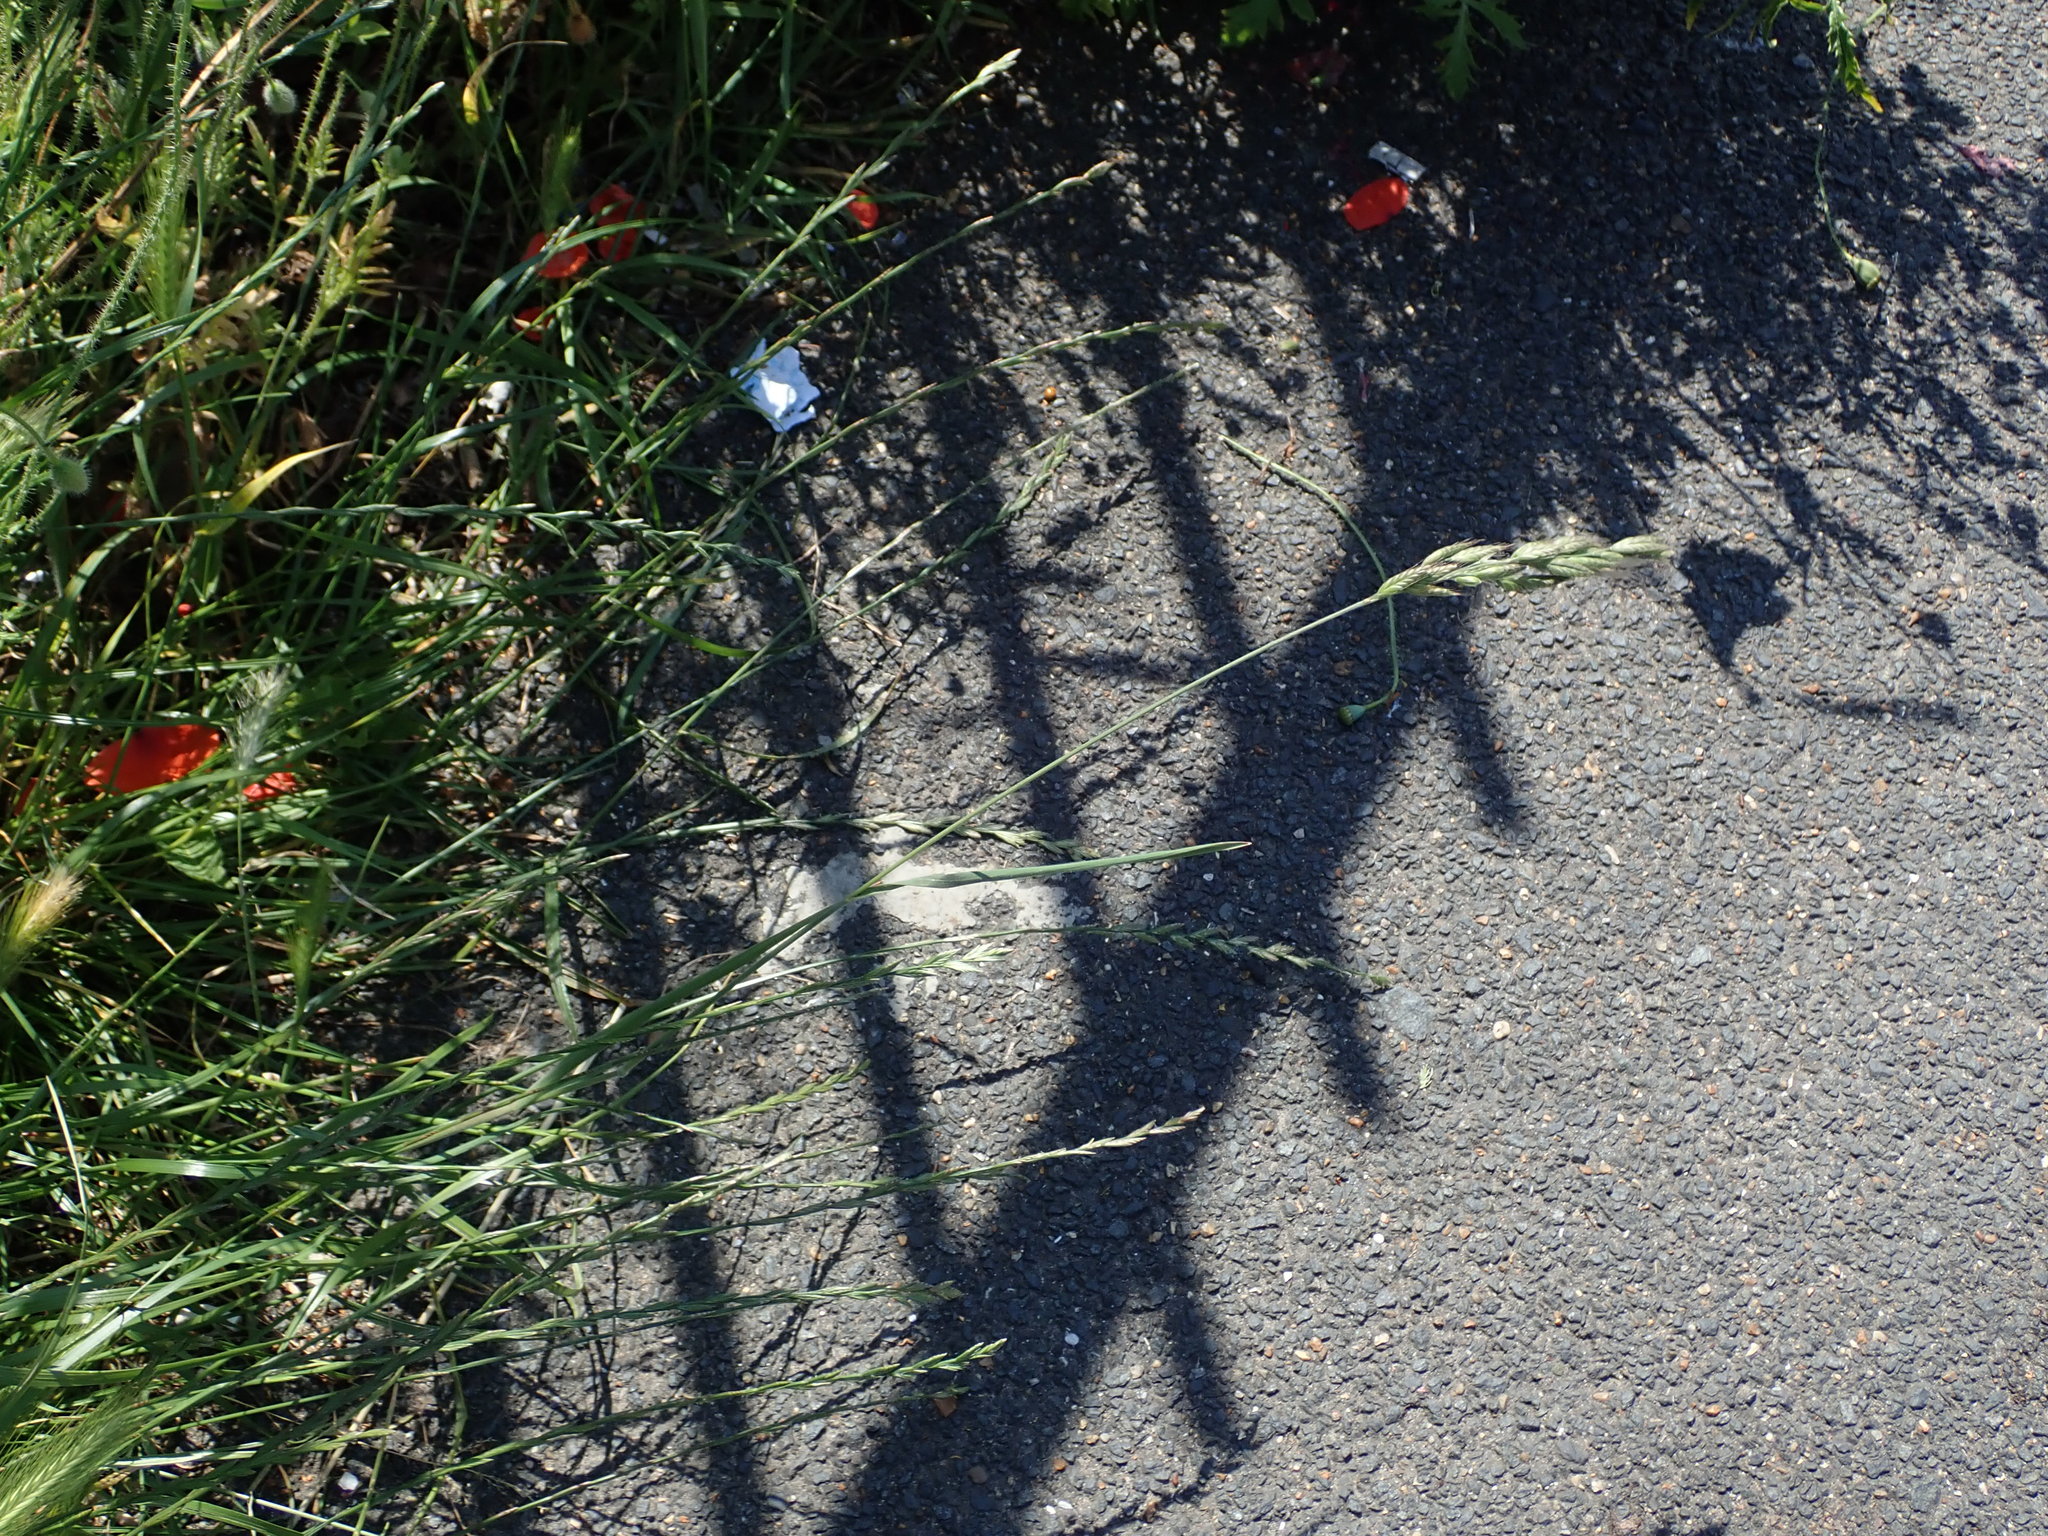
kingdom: Plantae
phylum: Tracheophyta
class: Liliopsida
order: Poales
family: Poaceae
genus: Bromus
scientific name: Bromus hordeaceus
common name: Soft brome
